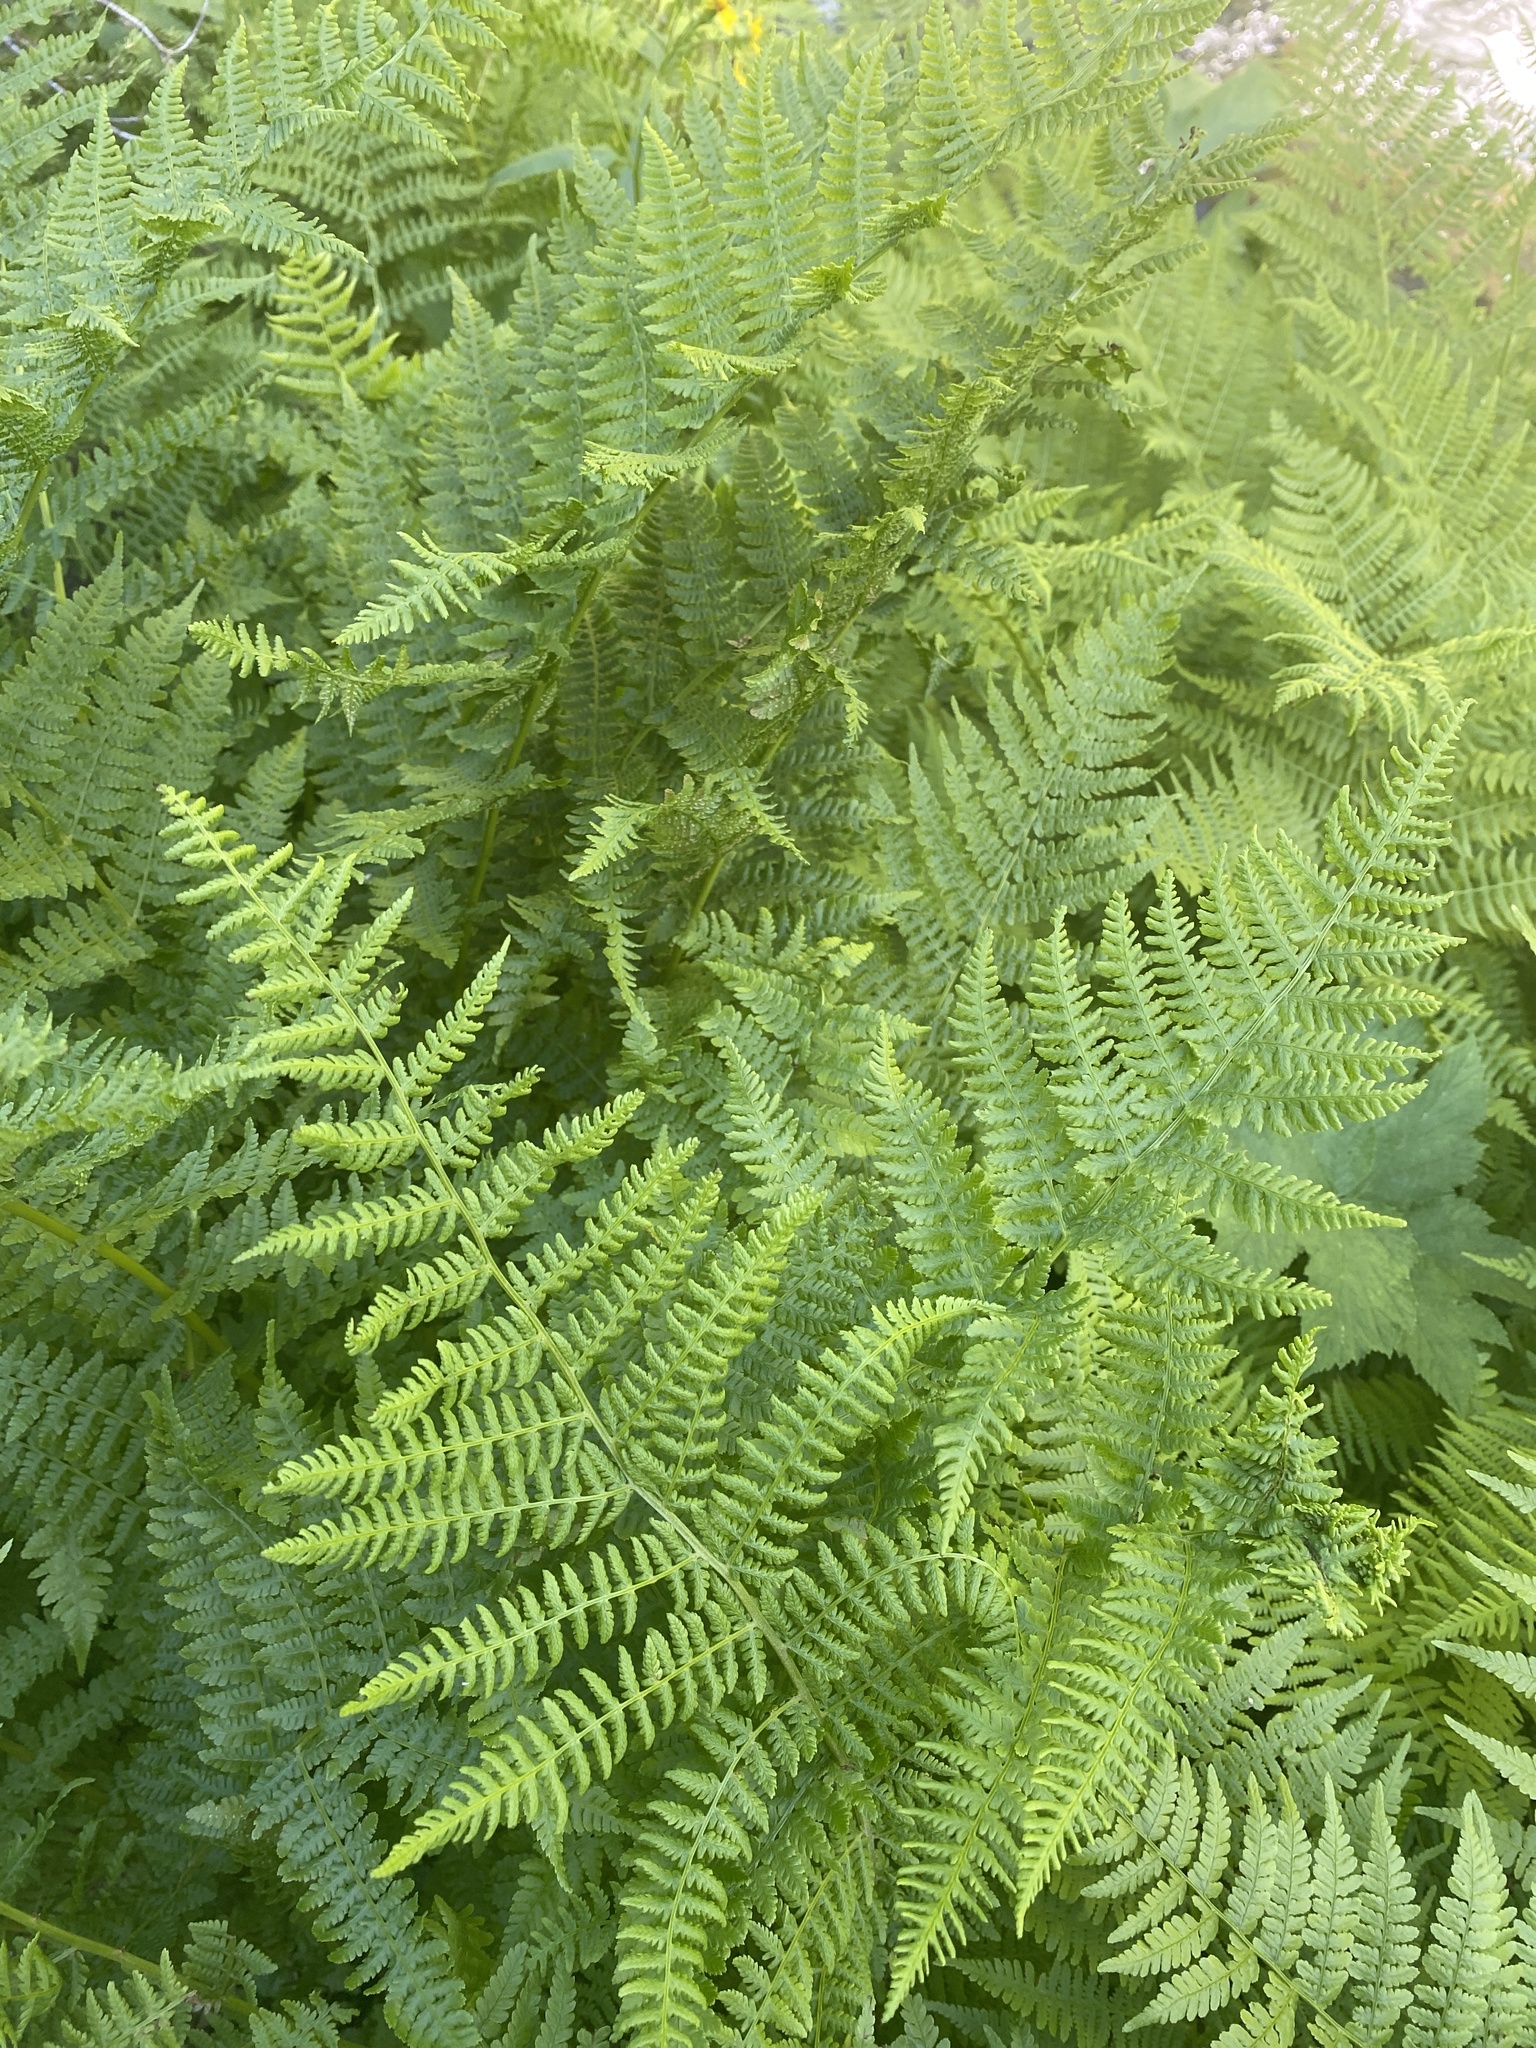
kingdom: Plantae
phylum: Tracheophyta
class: Polypodiopsida
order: Polypodiales
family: Athyriaceae
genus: Athyrium
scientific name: Athyrium cyclosorum
